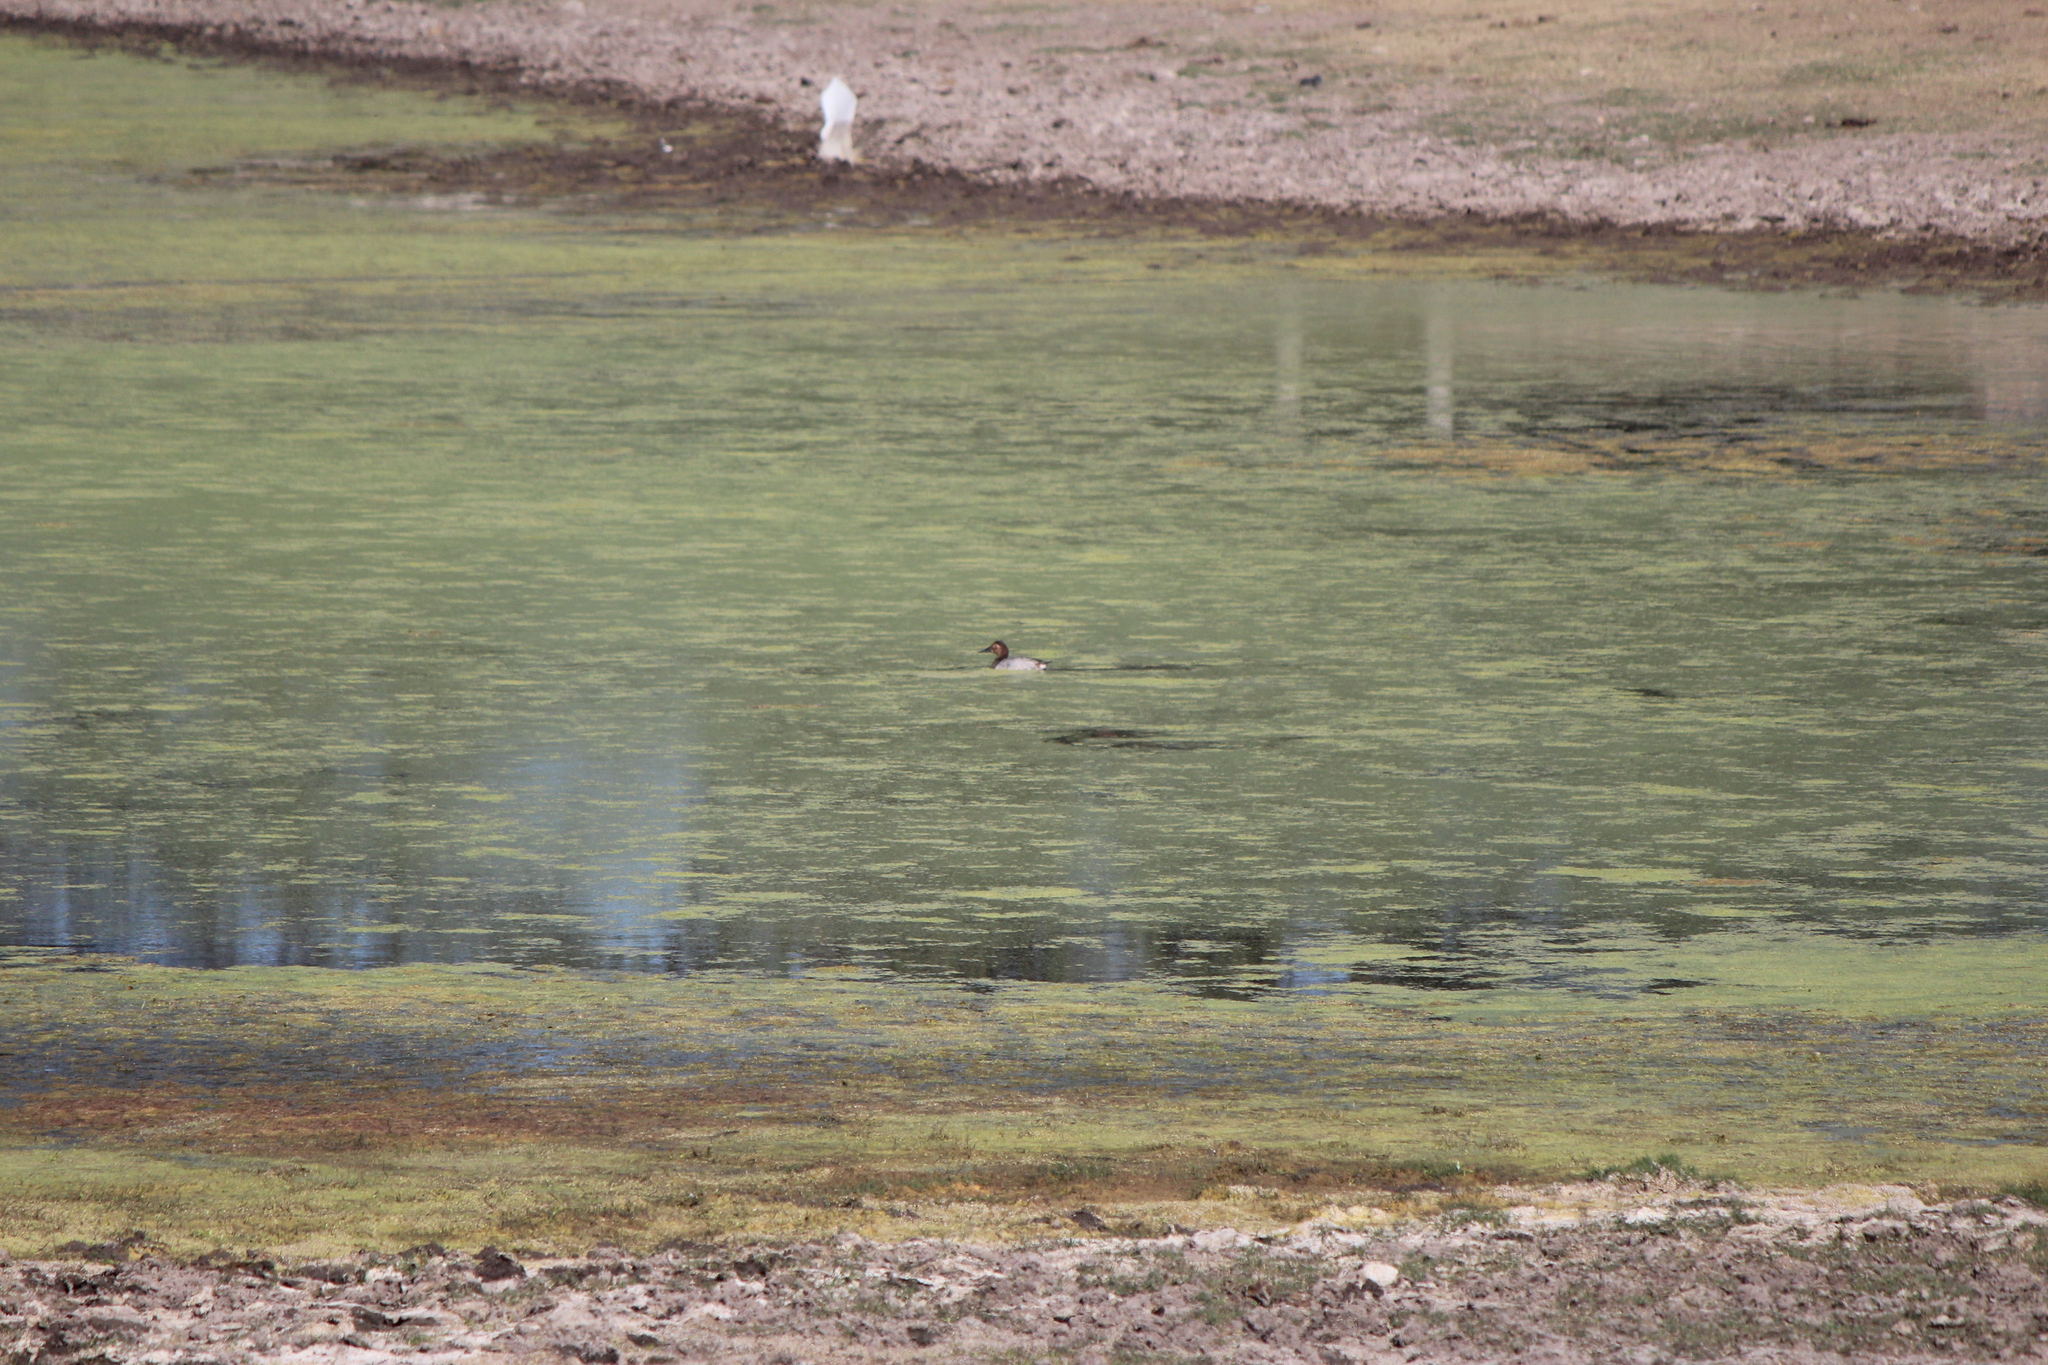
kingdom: Animalia
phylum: Chordata
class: Aves
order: Anseriformes
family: Anatidae
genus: Aythya
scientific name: Aythya valisineria
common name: Canvasback
